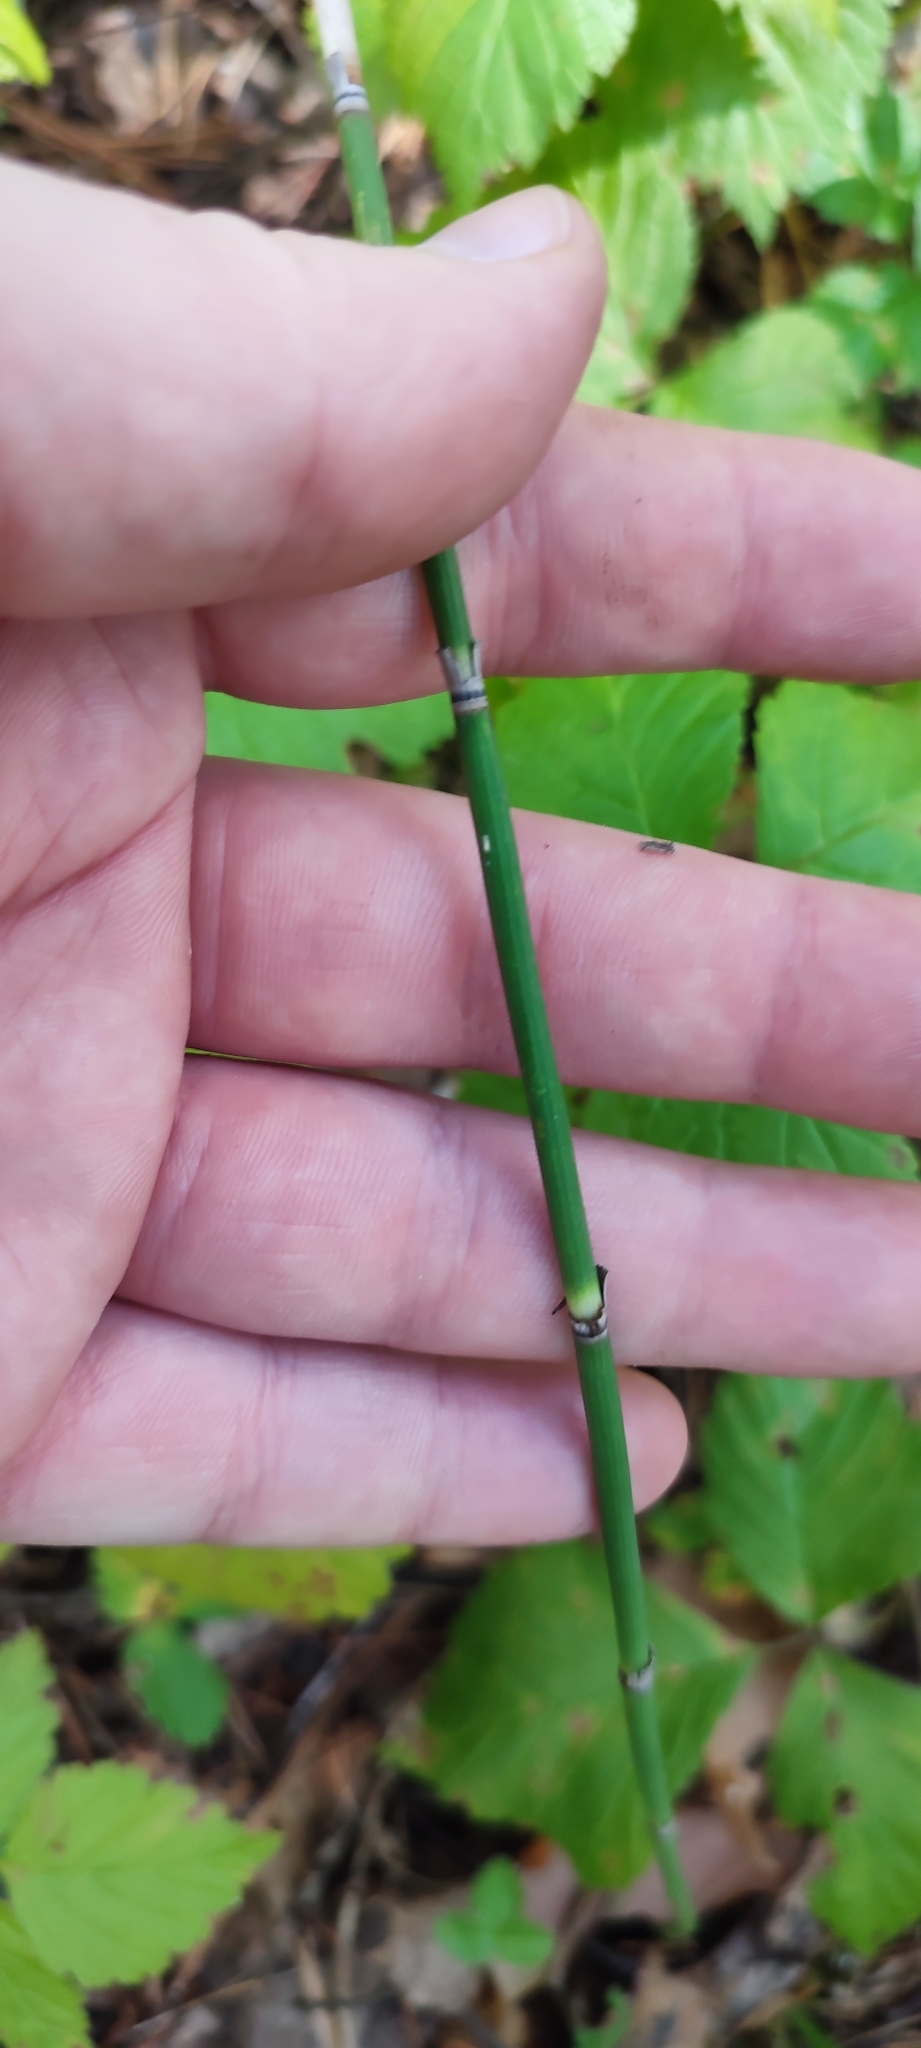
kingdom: Plantae
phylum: Tracheophyta
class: Polypodiopsida
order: Equisetales
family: Equisetaceae
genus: Equisetum
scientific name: Equisetum hyemale
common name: Rough horsetail
